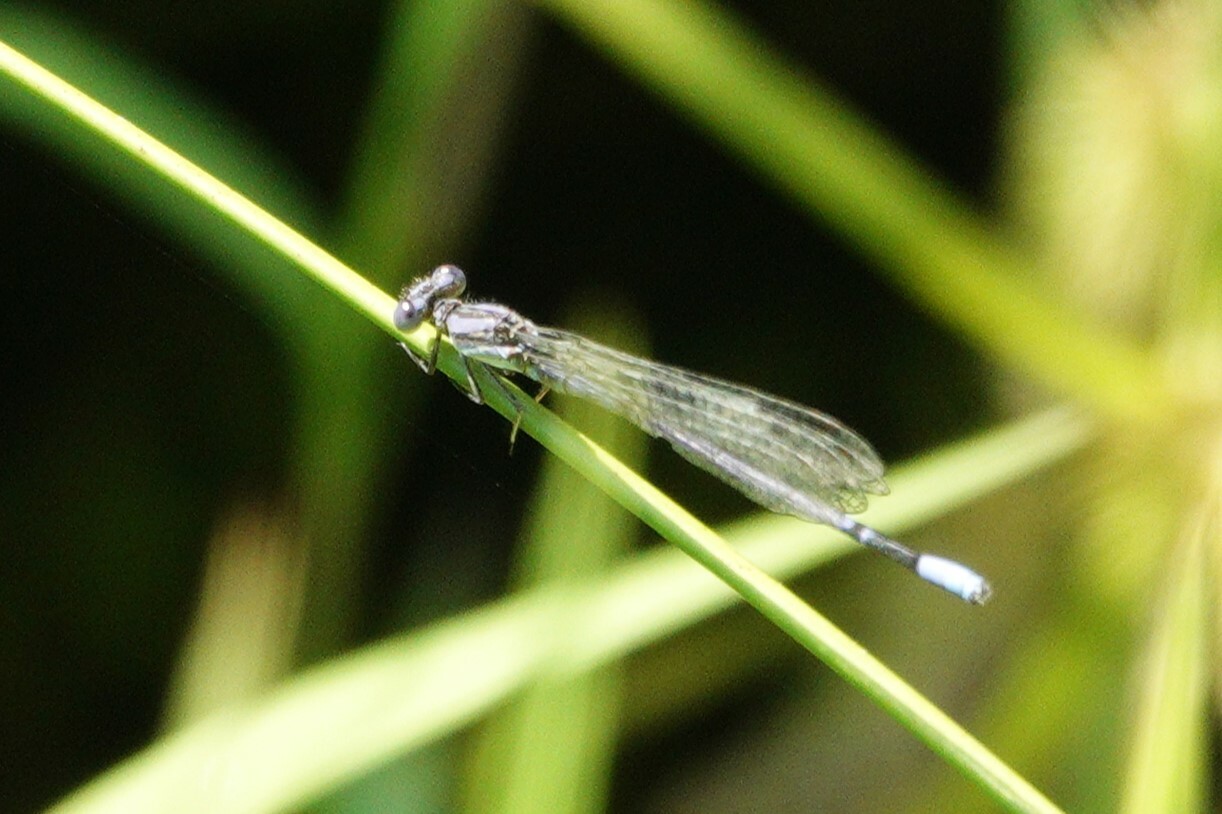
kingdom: Animalia
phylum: Arthropoda
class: Insecta
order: Odonata
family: Coenagrionidae
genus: Argia
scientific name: Argia fumipennis
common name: Variable dancer
